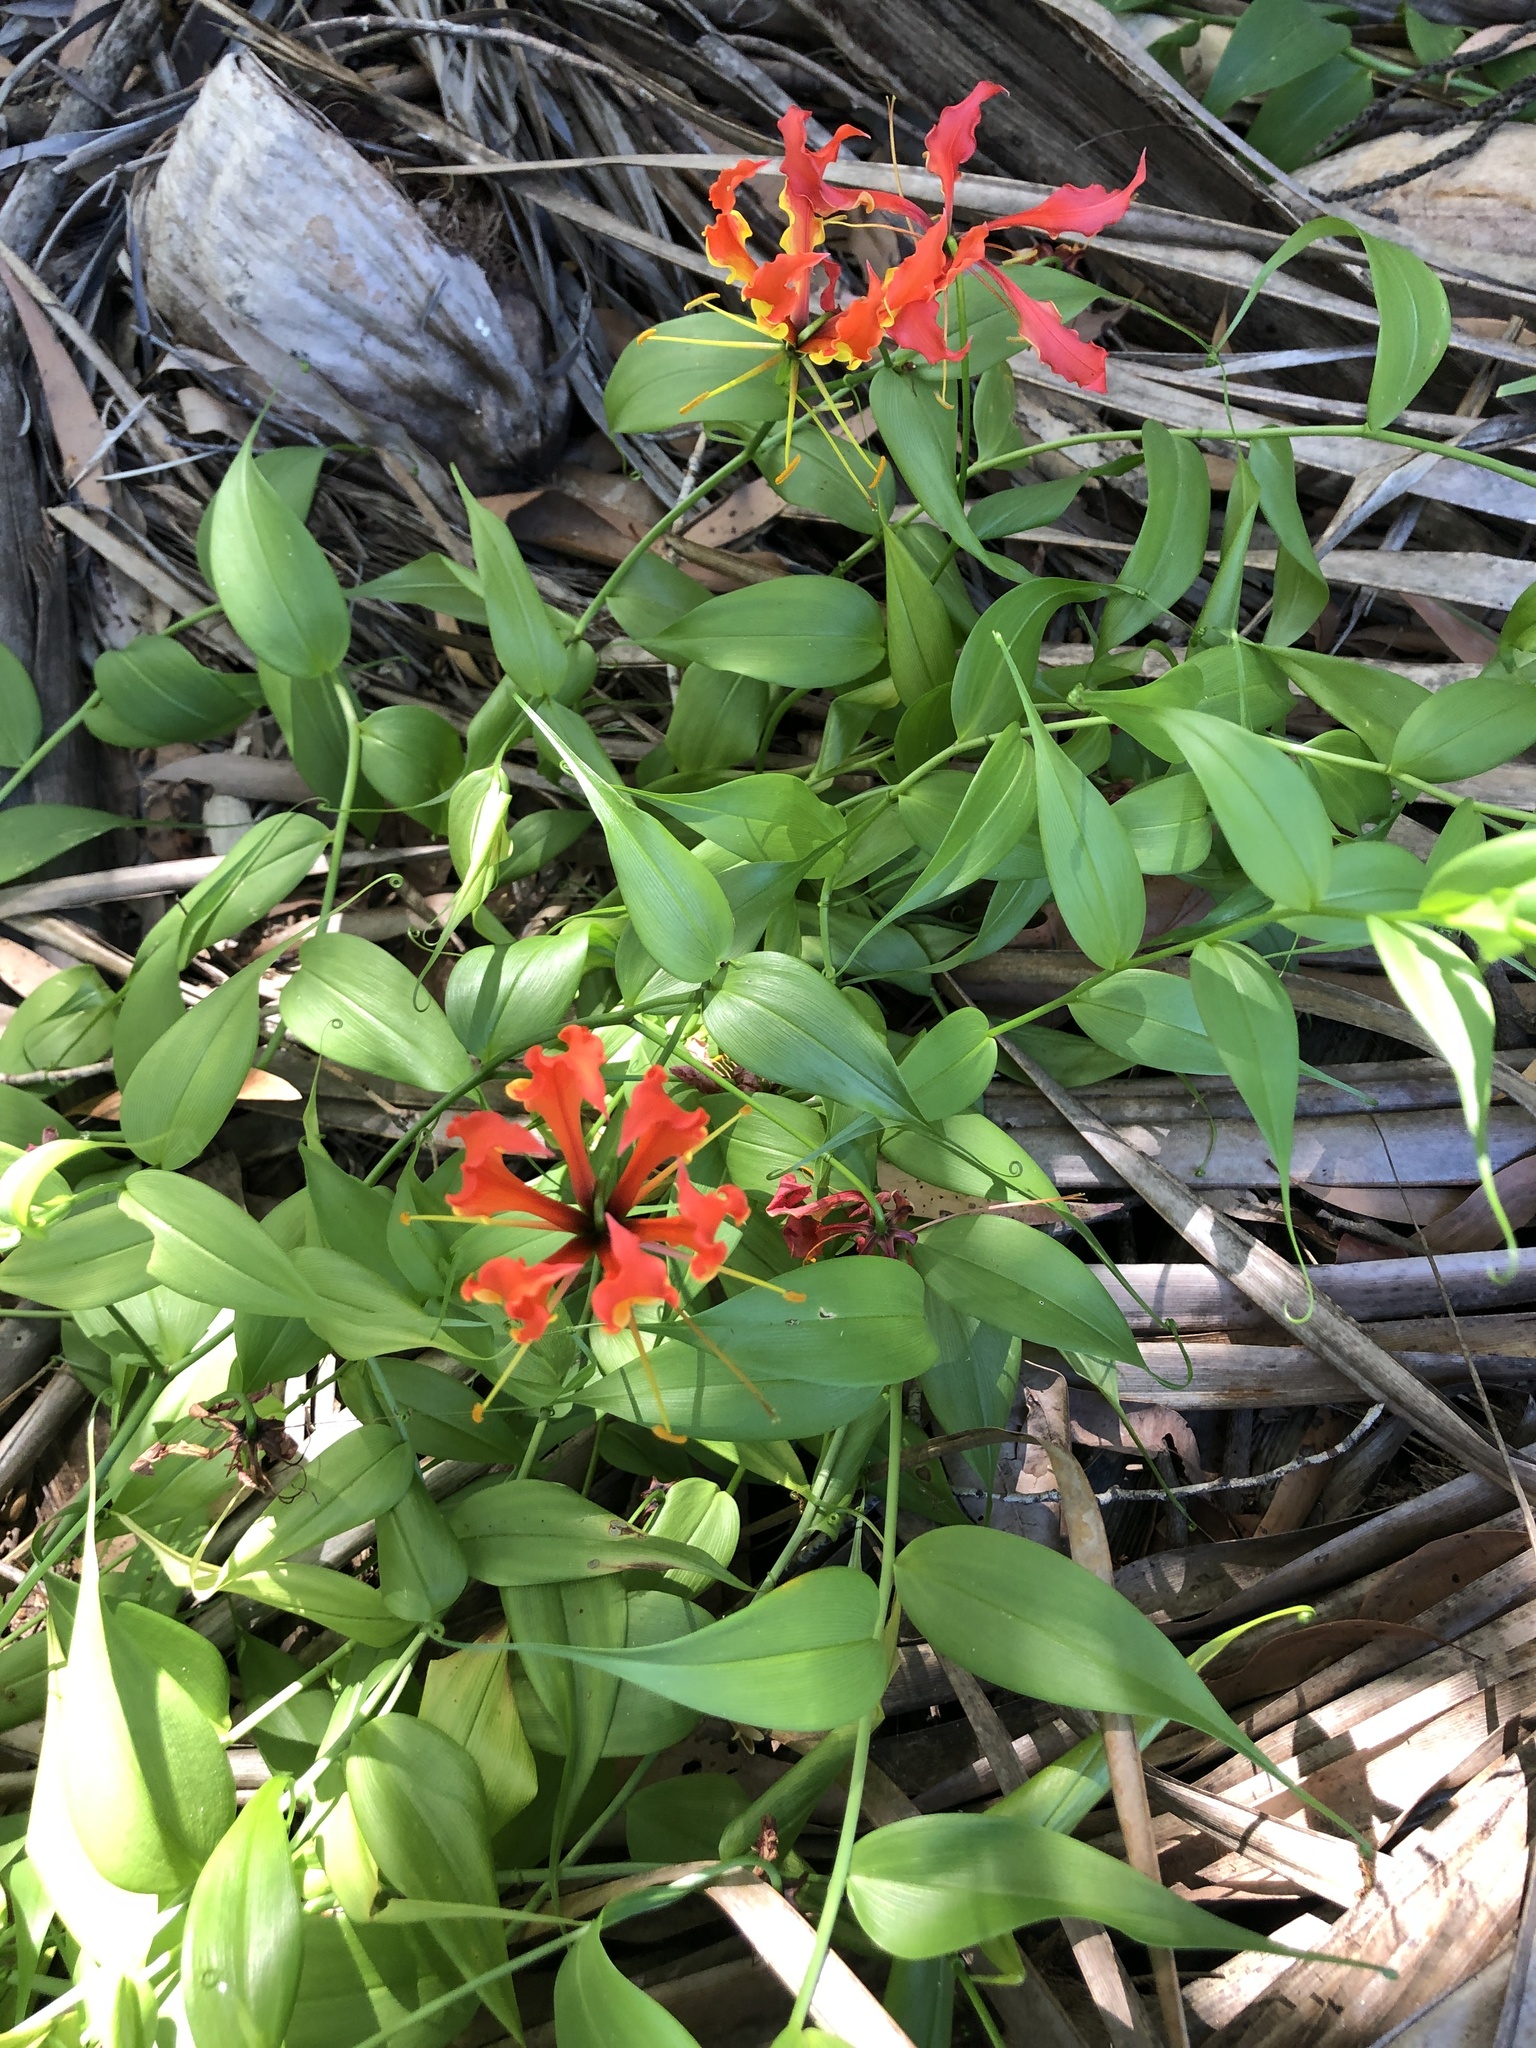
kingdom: Plantae
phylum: Tracheophyta
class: Liliopsida
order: Liliales
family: Colchicaceae
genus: Gloriosa
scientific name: Gloriosa superba
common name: Flame lily
